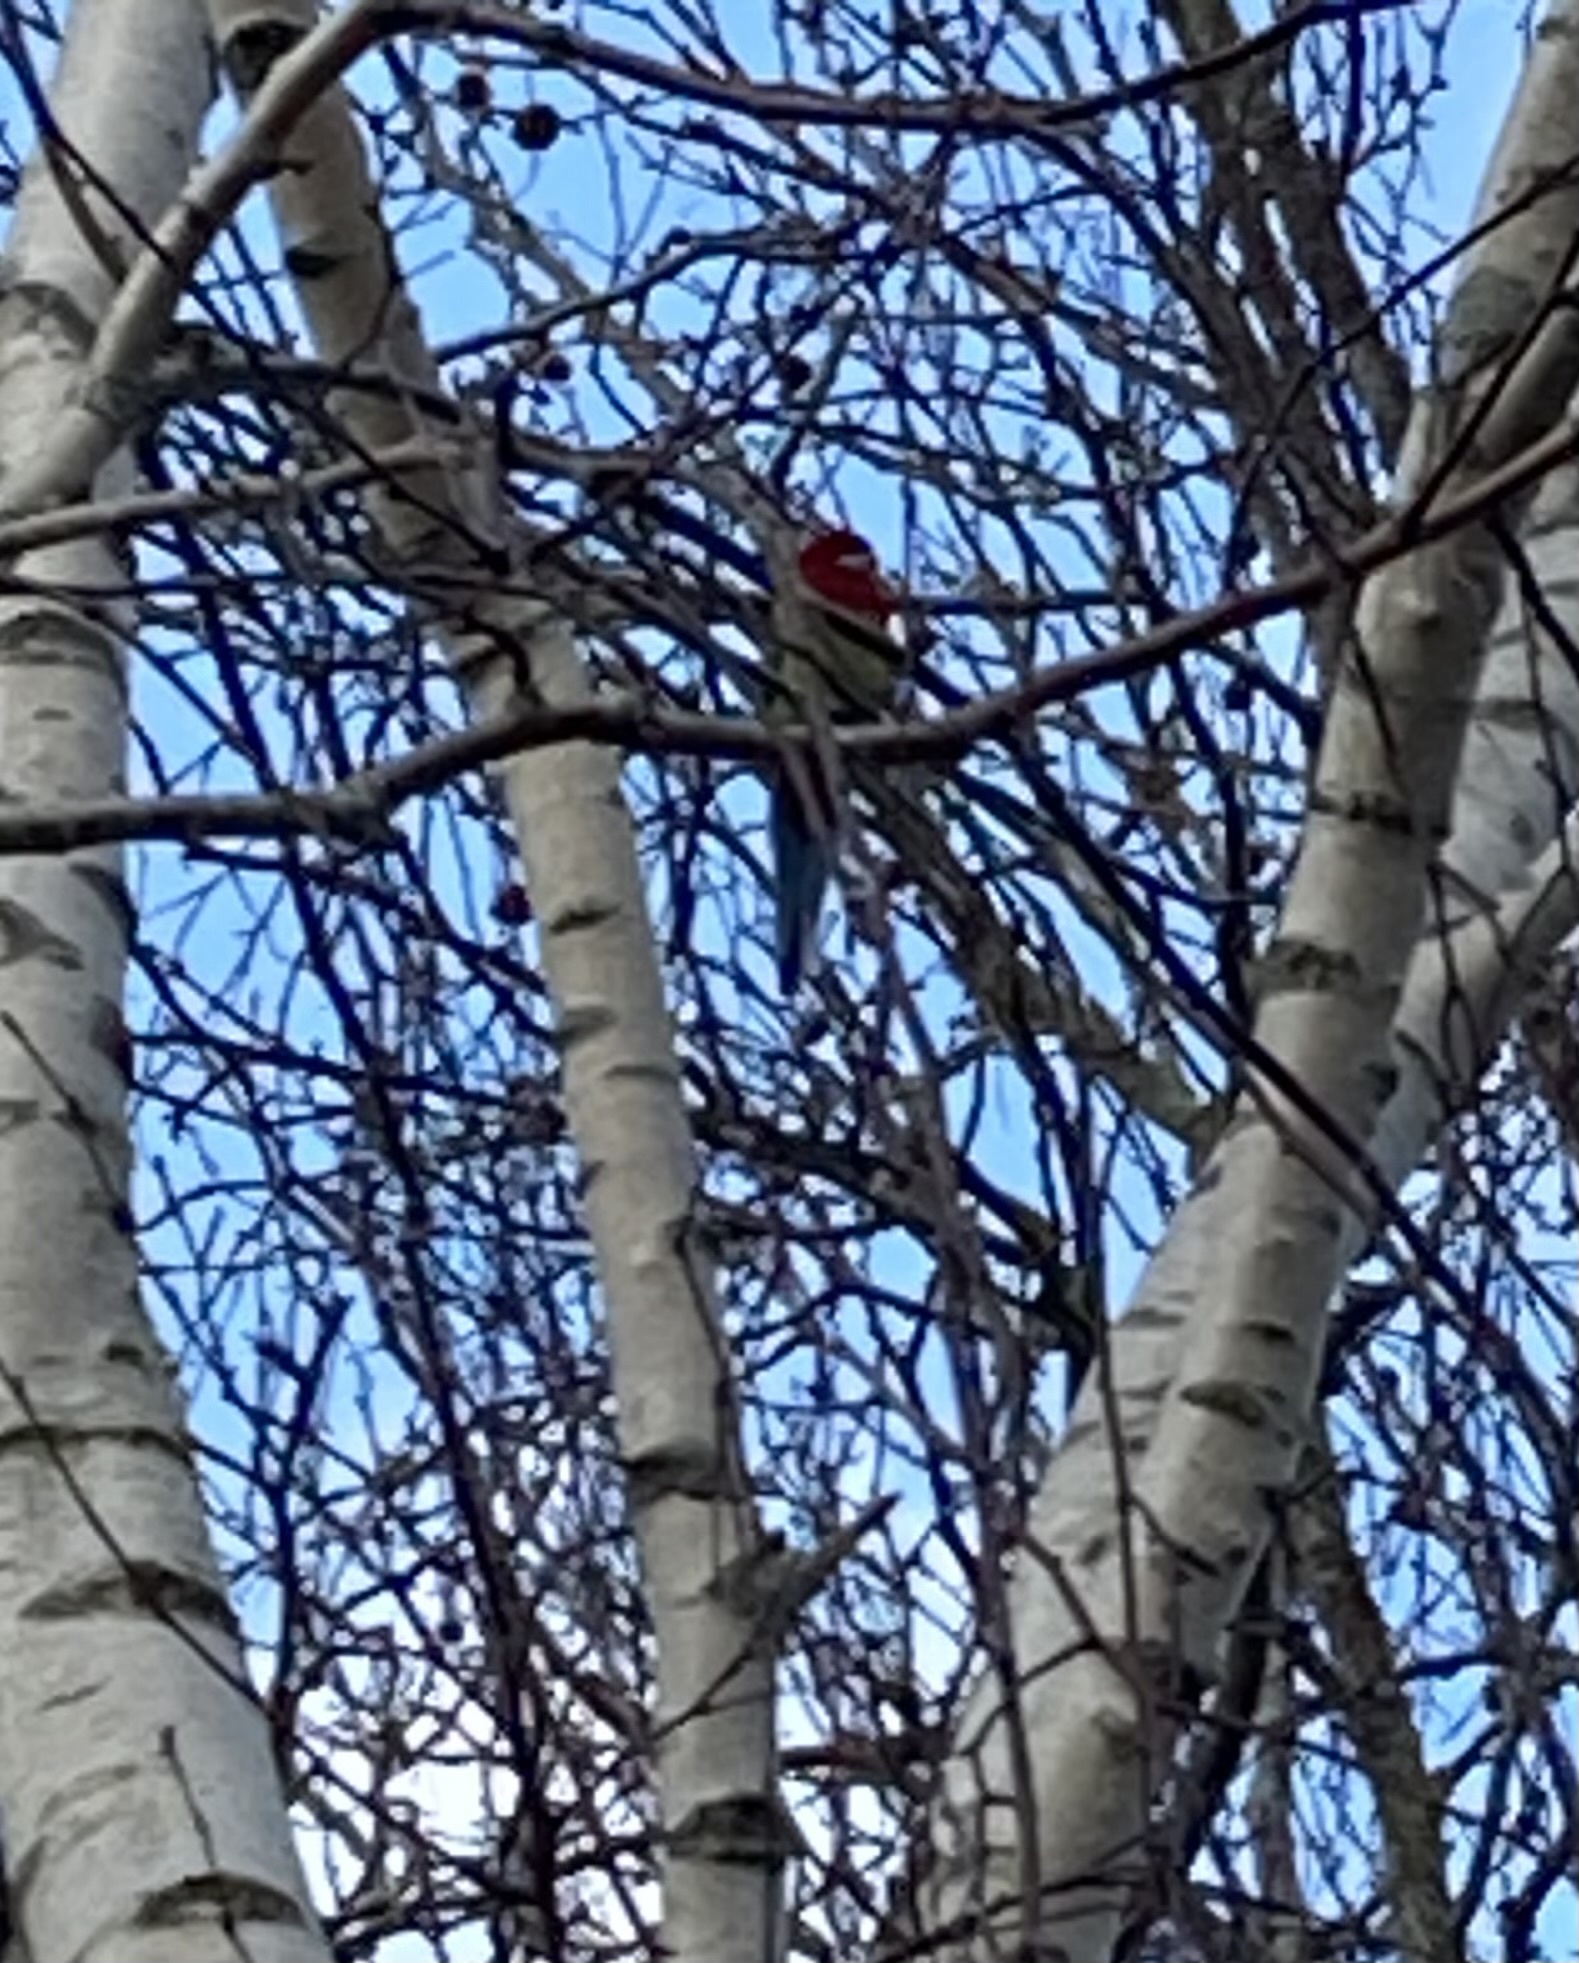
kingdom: Animalia
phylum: Chordata
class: Aves
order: Psittaciformes
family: Psittacidae
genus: Platycercus
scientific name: Platycercus eximius
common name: Eastern rosella
